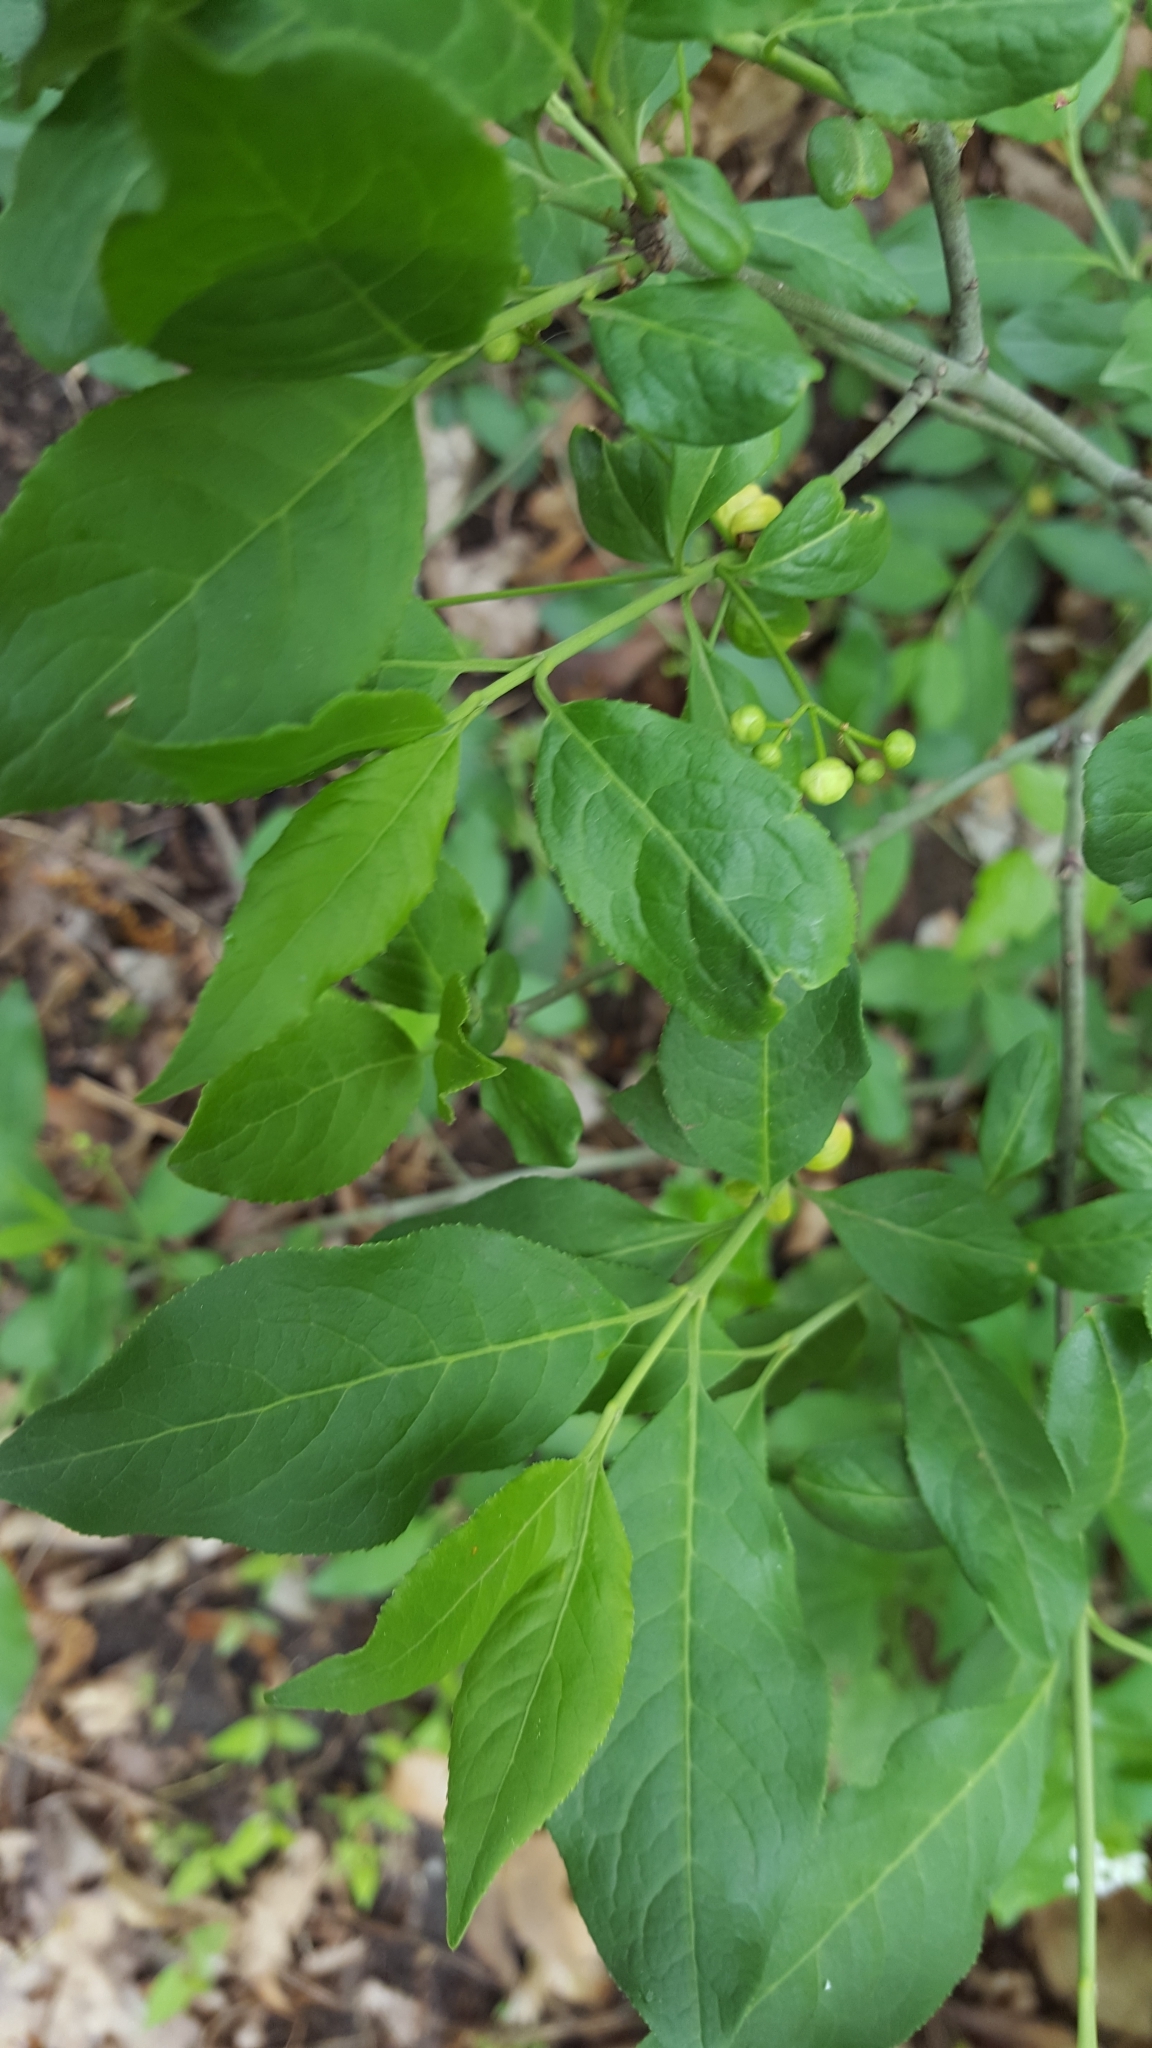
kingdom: Plantae
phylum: Tracheophyta
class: Magnoliopsida
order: Celastrales
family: Celastraceae
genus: Euonymus
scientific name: Euonymus europaeus
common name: Spindle
